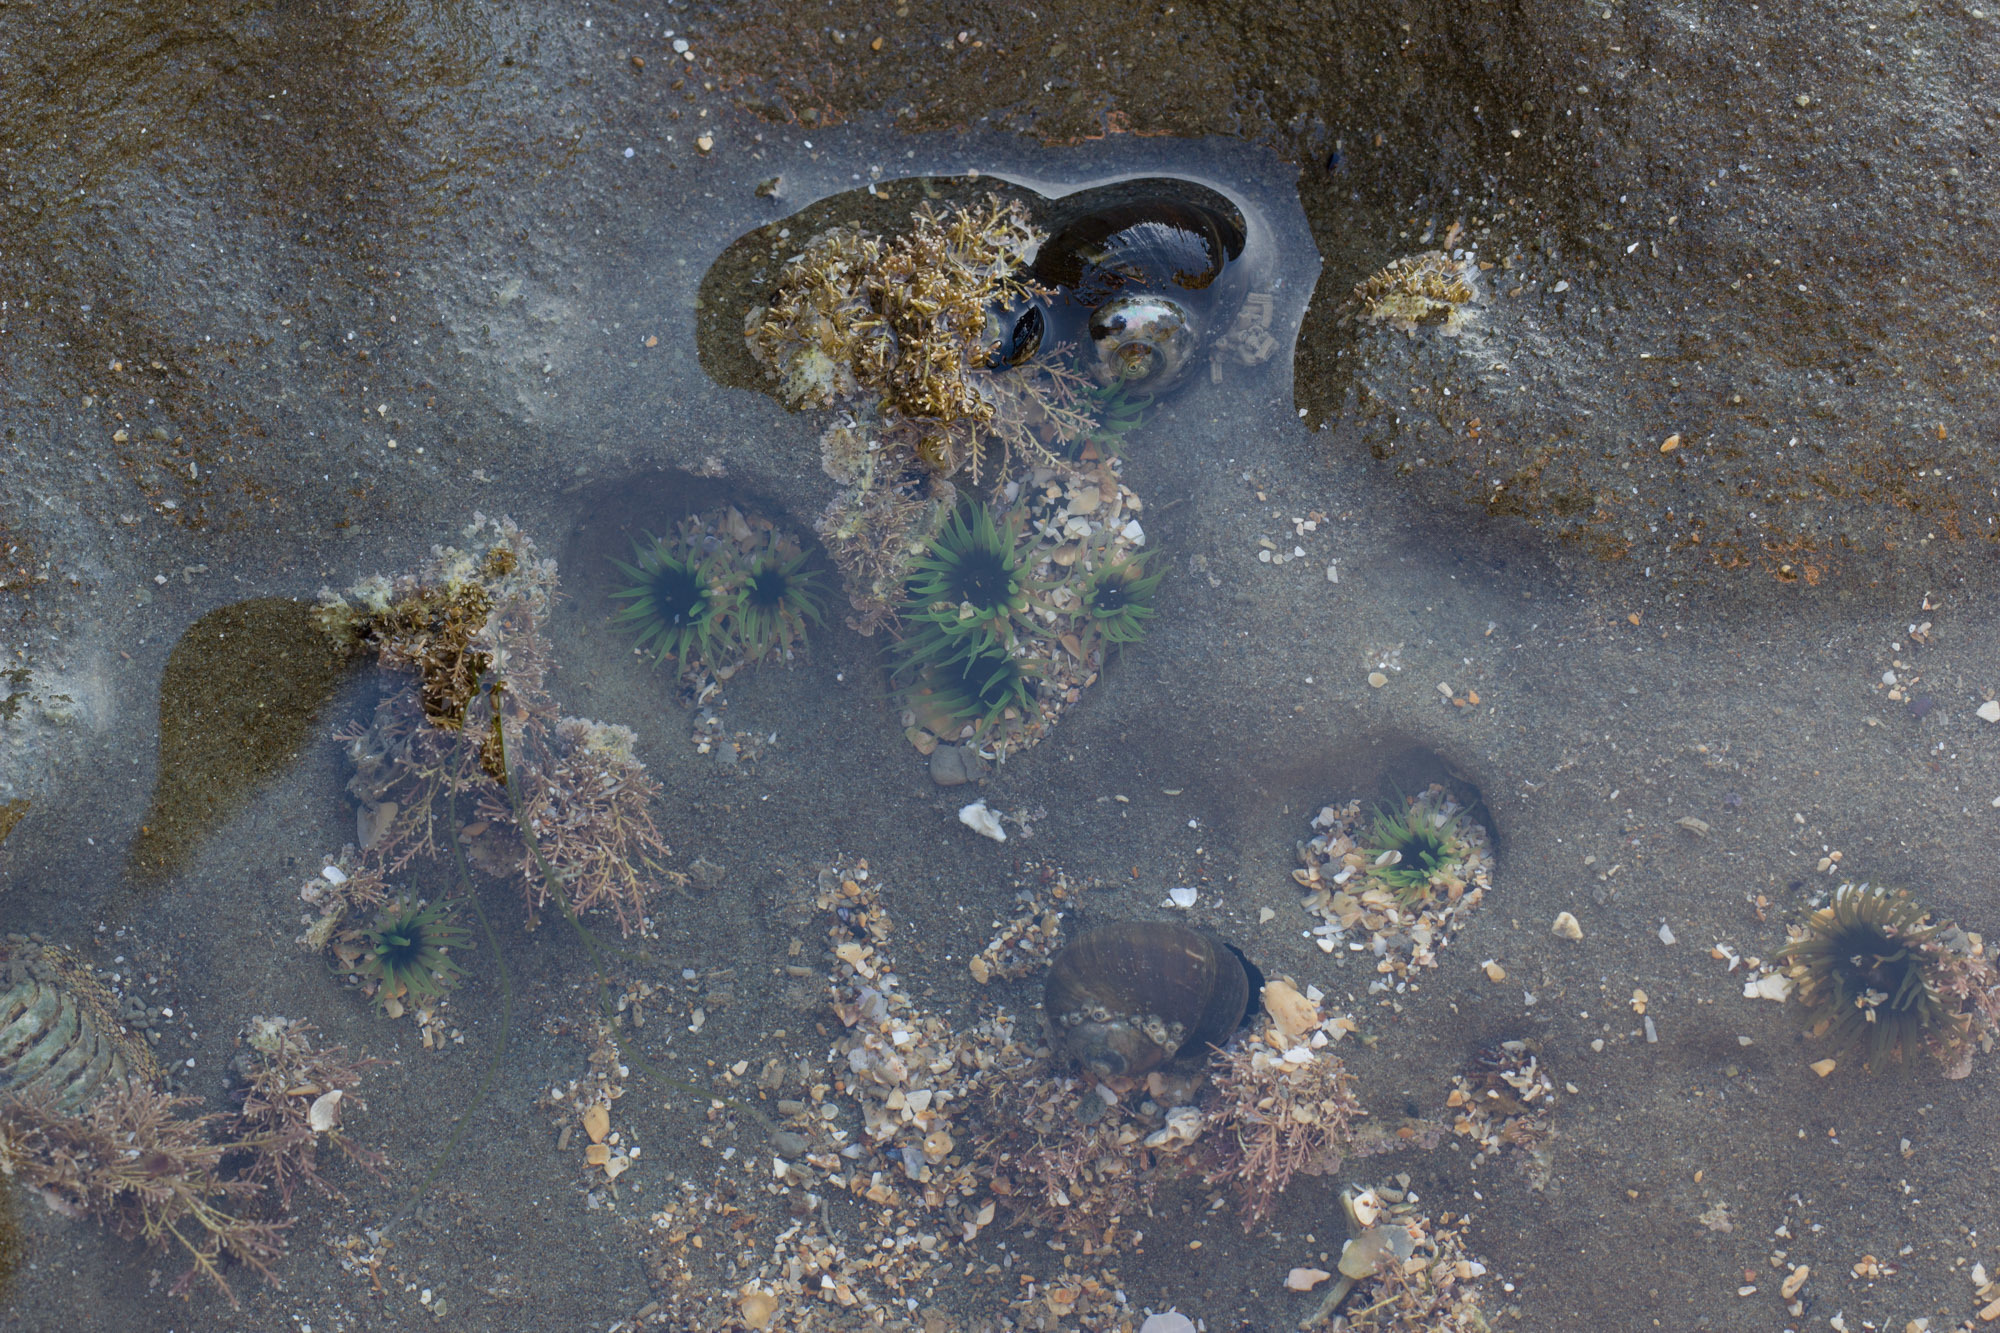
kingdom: Animalia
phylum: Cnidaria
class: Anthozoa
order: Actiniaria
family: Actiniidae
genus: Aulactinia
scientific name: Aulactinia veratra
